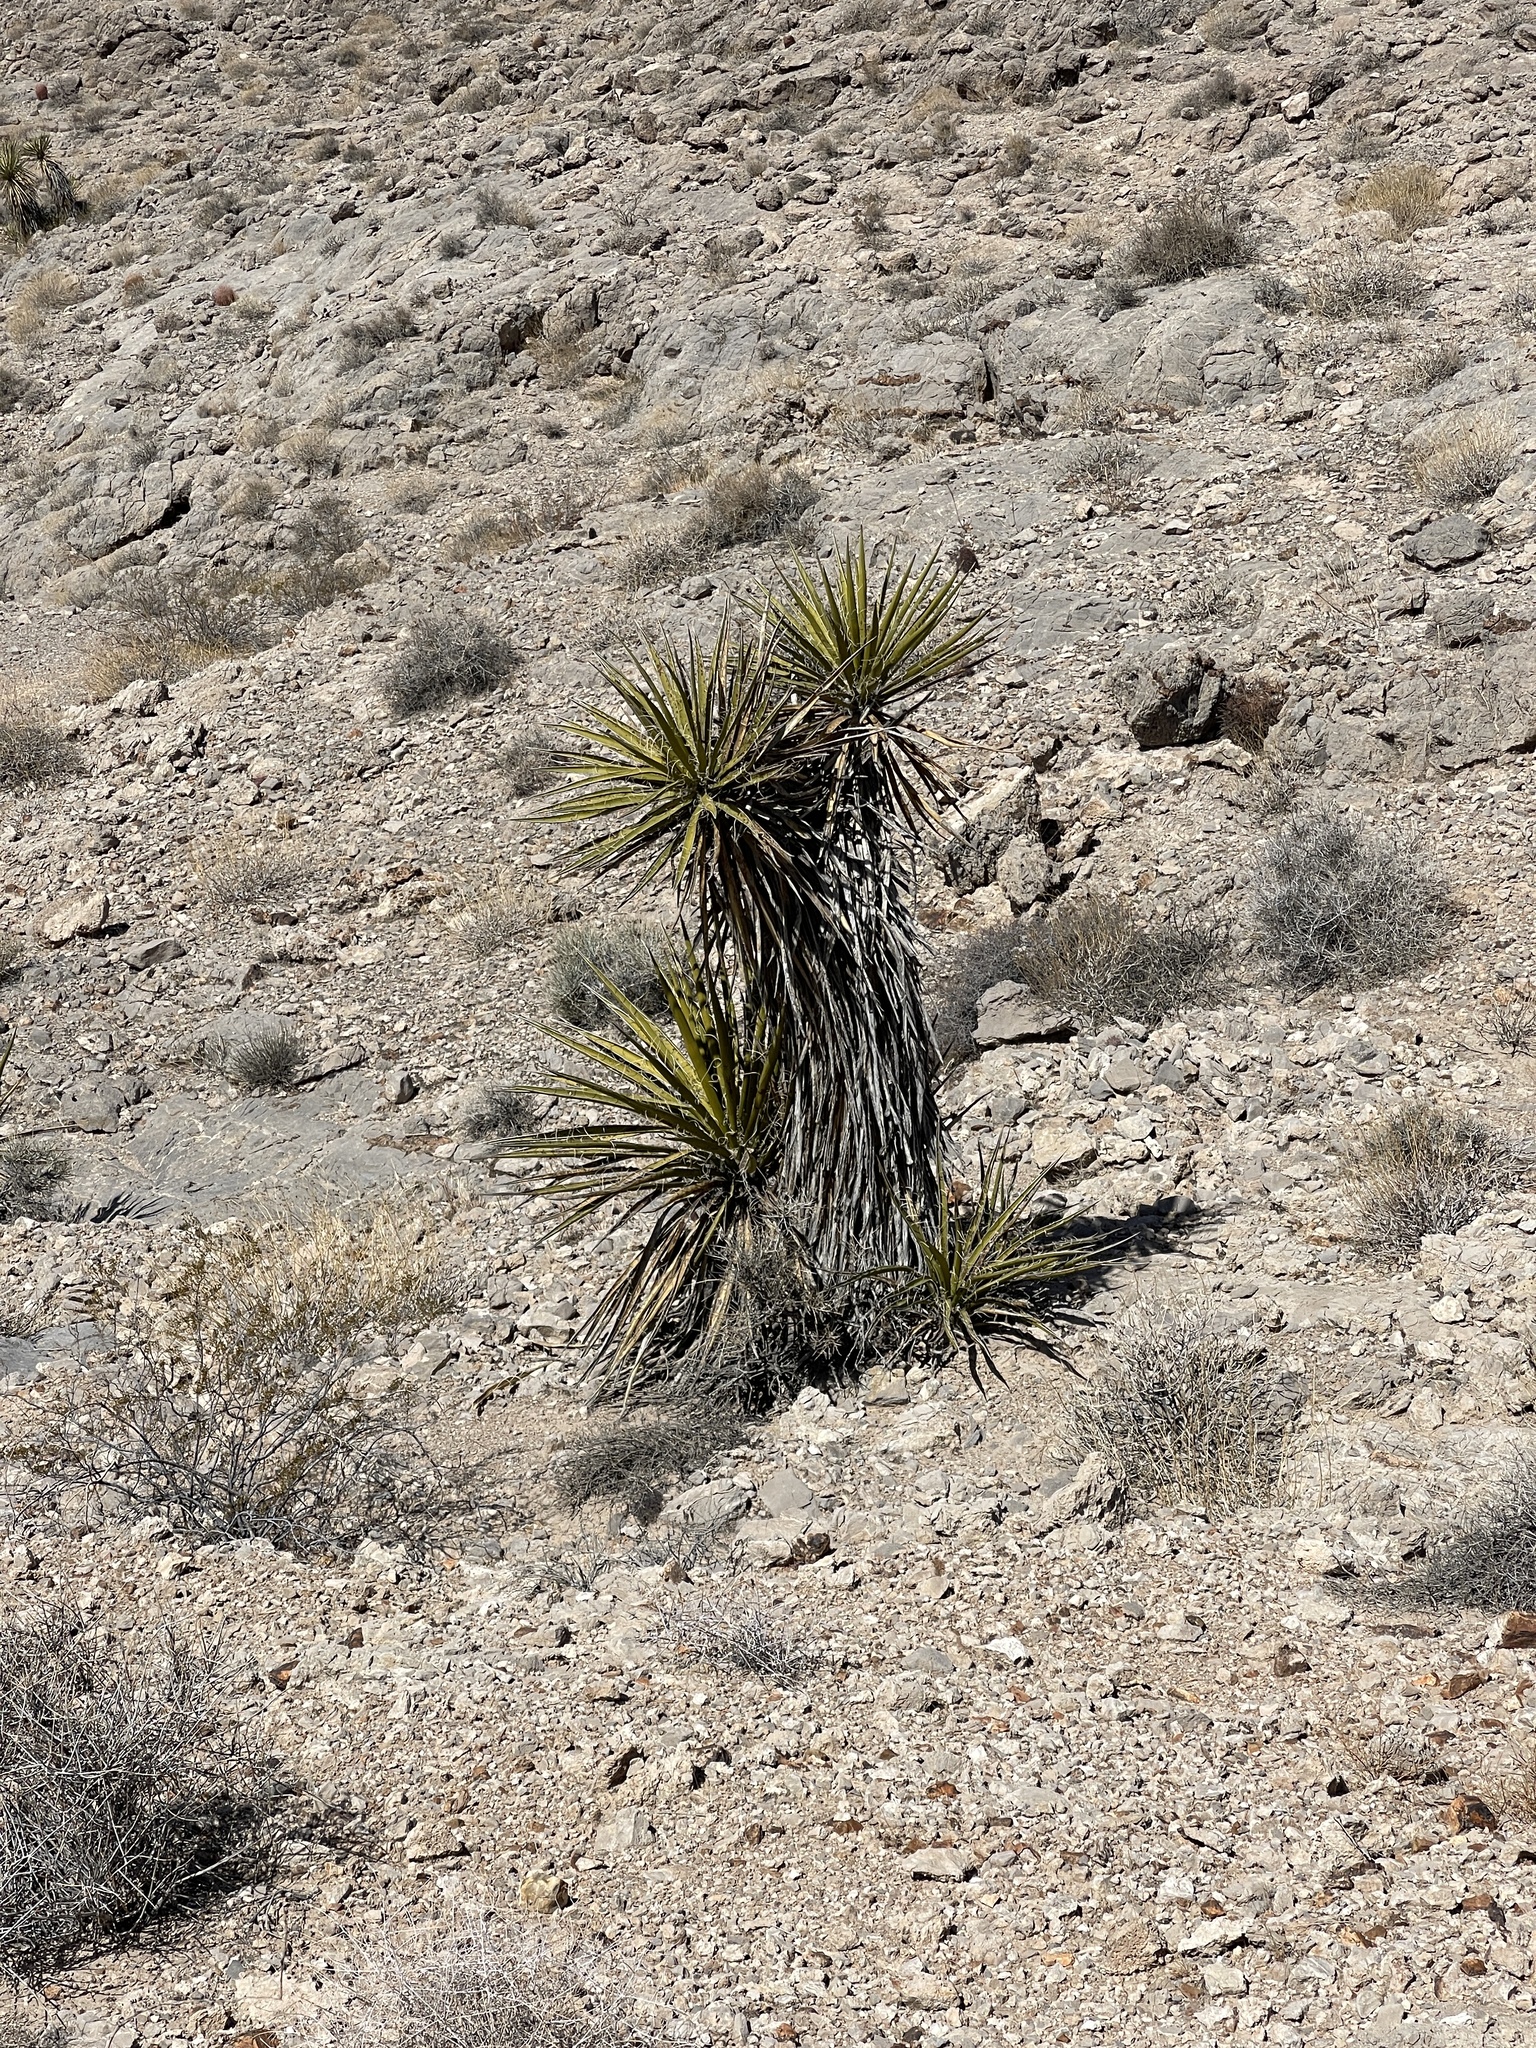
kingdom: Plantae
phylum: Tracheophyta
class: Liliopsida
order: Asparagales
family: Asparagaceae
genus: Yucca
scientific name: Yucca schidigera
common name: Mojave yucca
